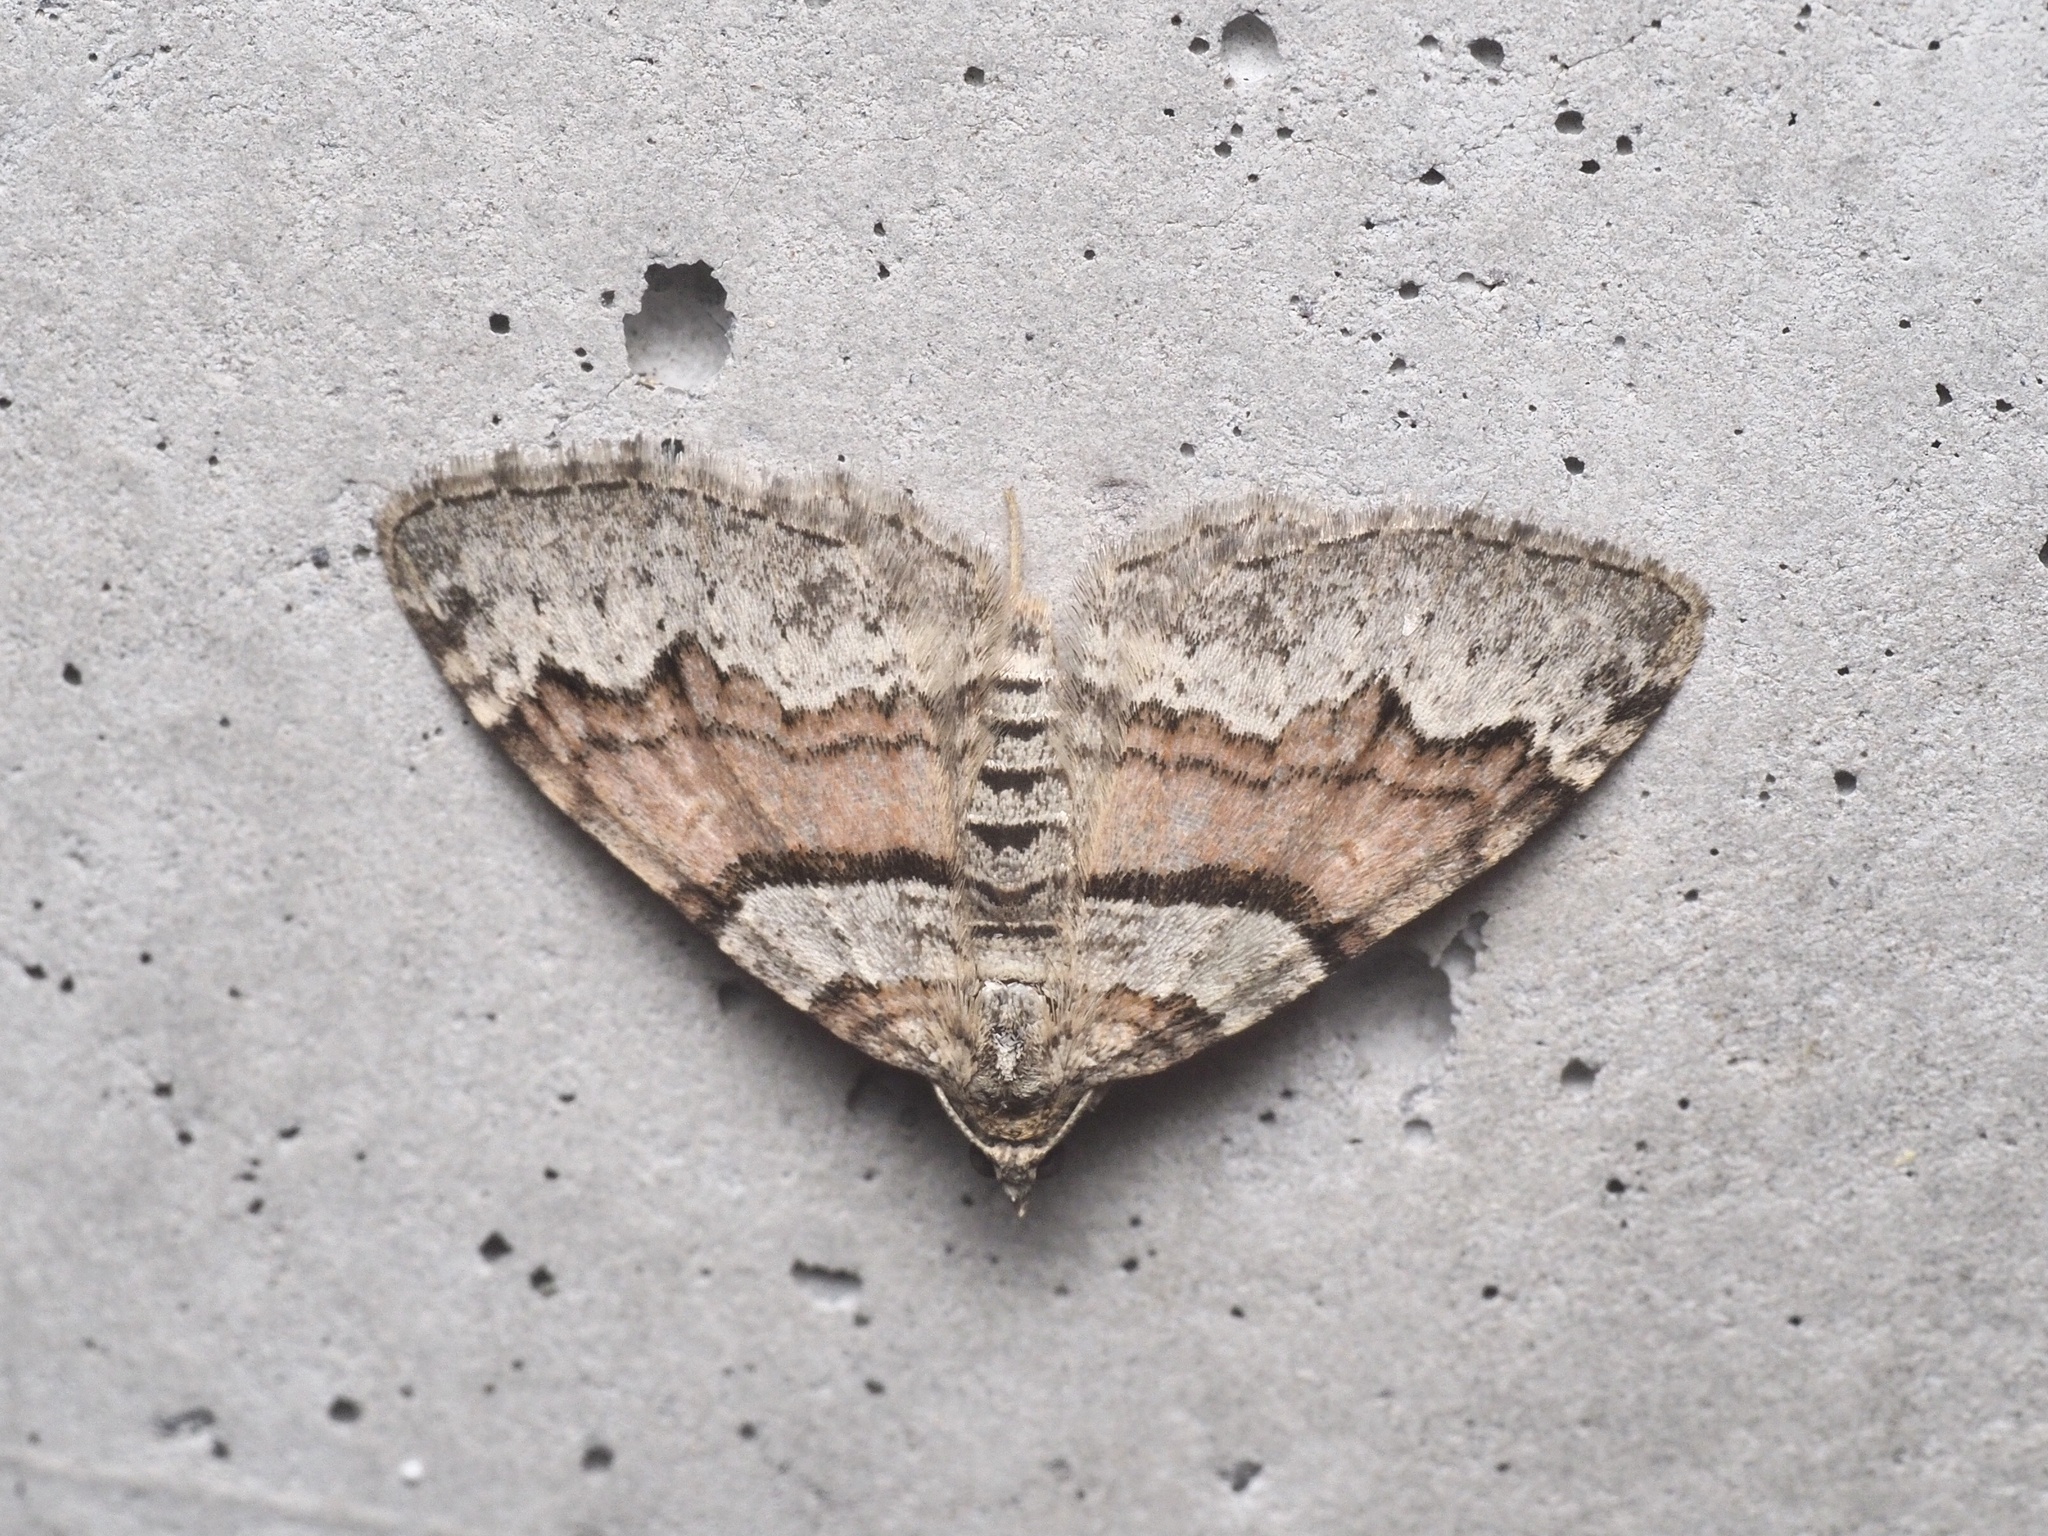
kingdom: Animalia
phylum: Arthropoda
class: Insecta
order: Lepidoptera
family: Geometridae
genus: Xanthorhoe
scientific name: Xanthorhoe designata
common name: Flame carpet
